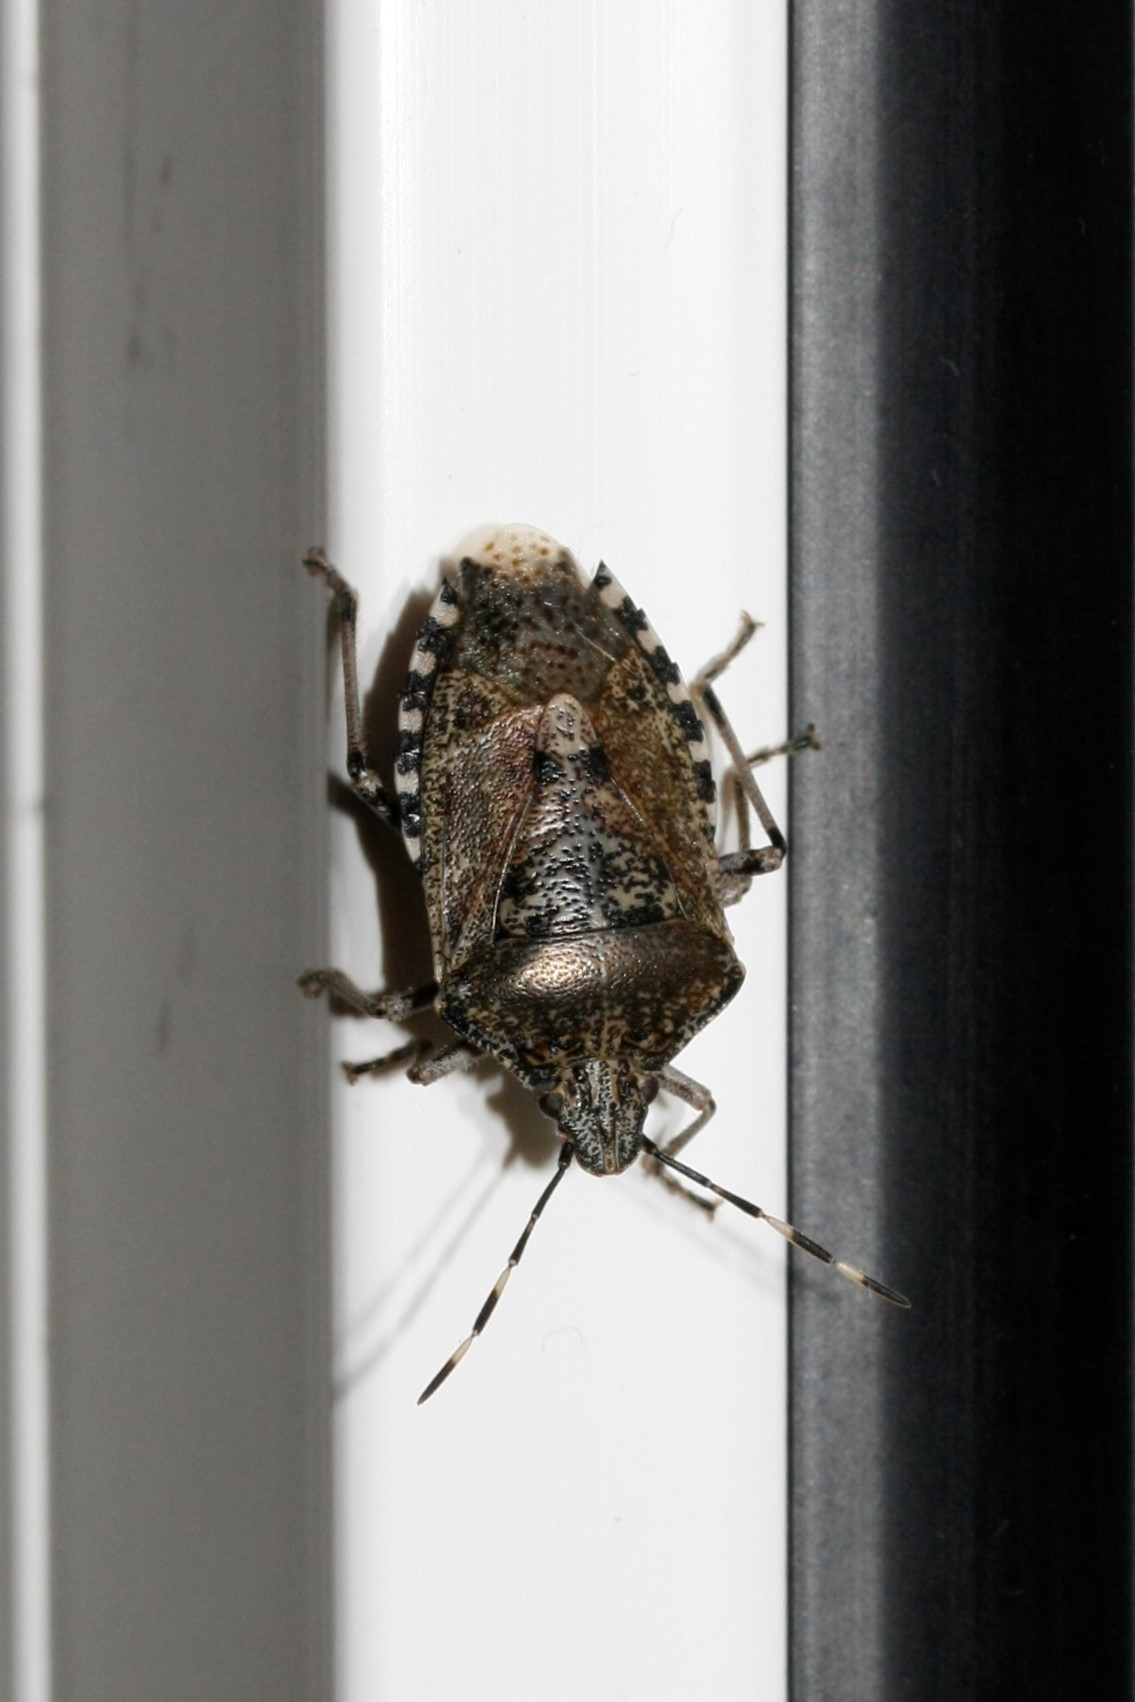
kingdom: Animalia
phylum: Arthropoda
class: Insecta
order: Hemiptera
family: Pentatomidae
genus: Rhaphigaster
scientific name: Rhaphigaster nebulosa
